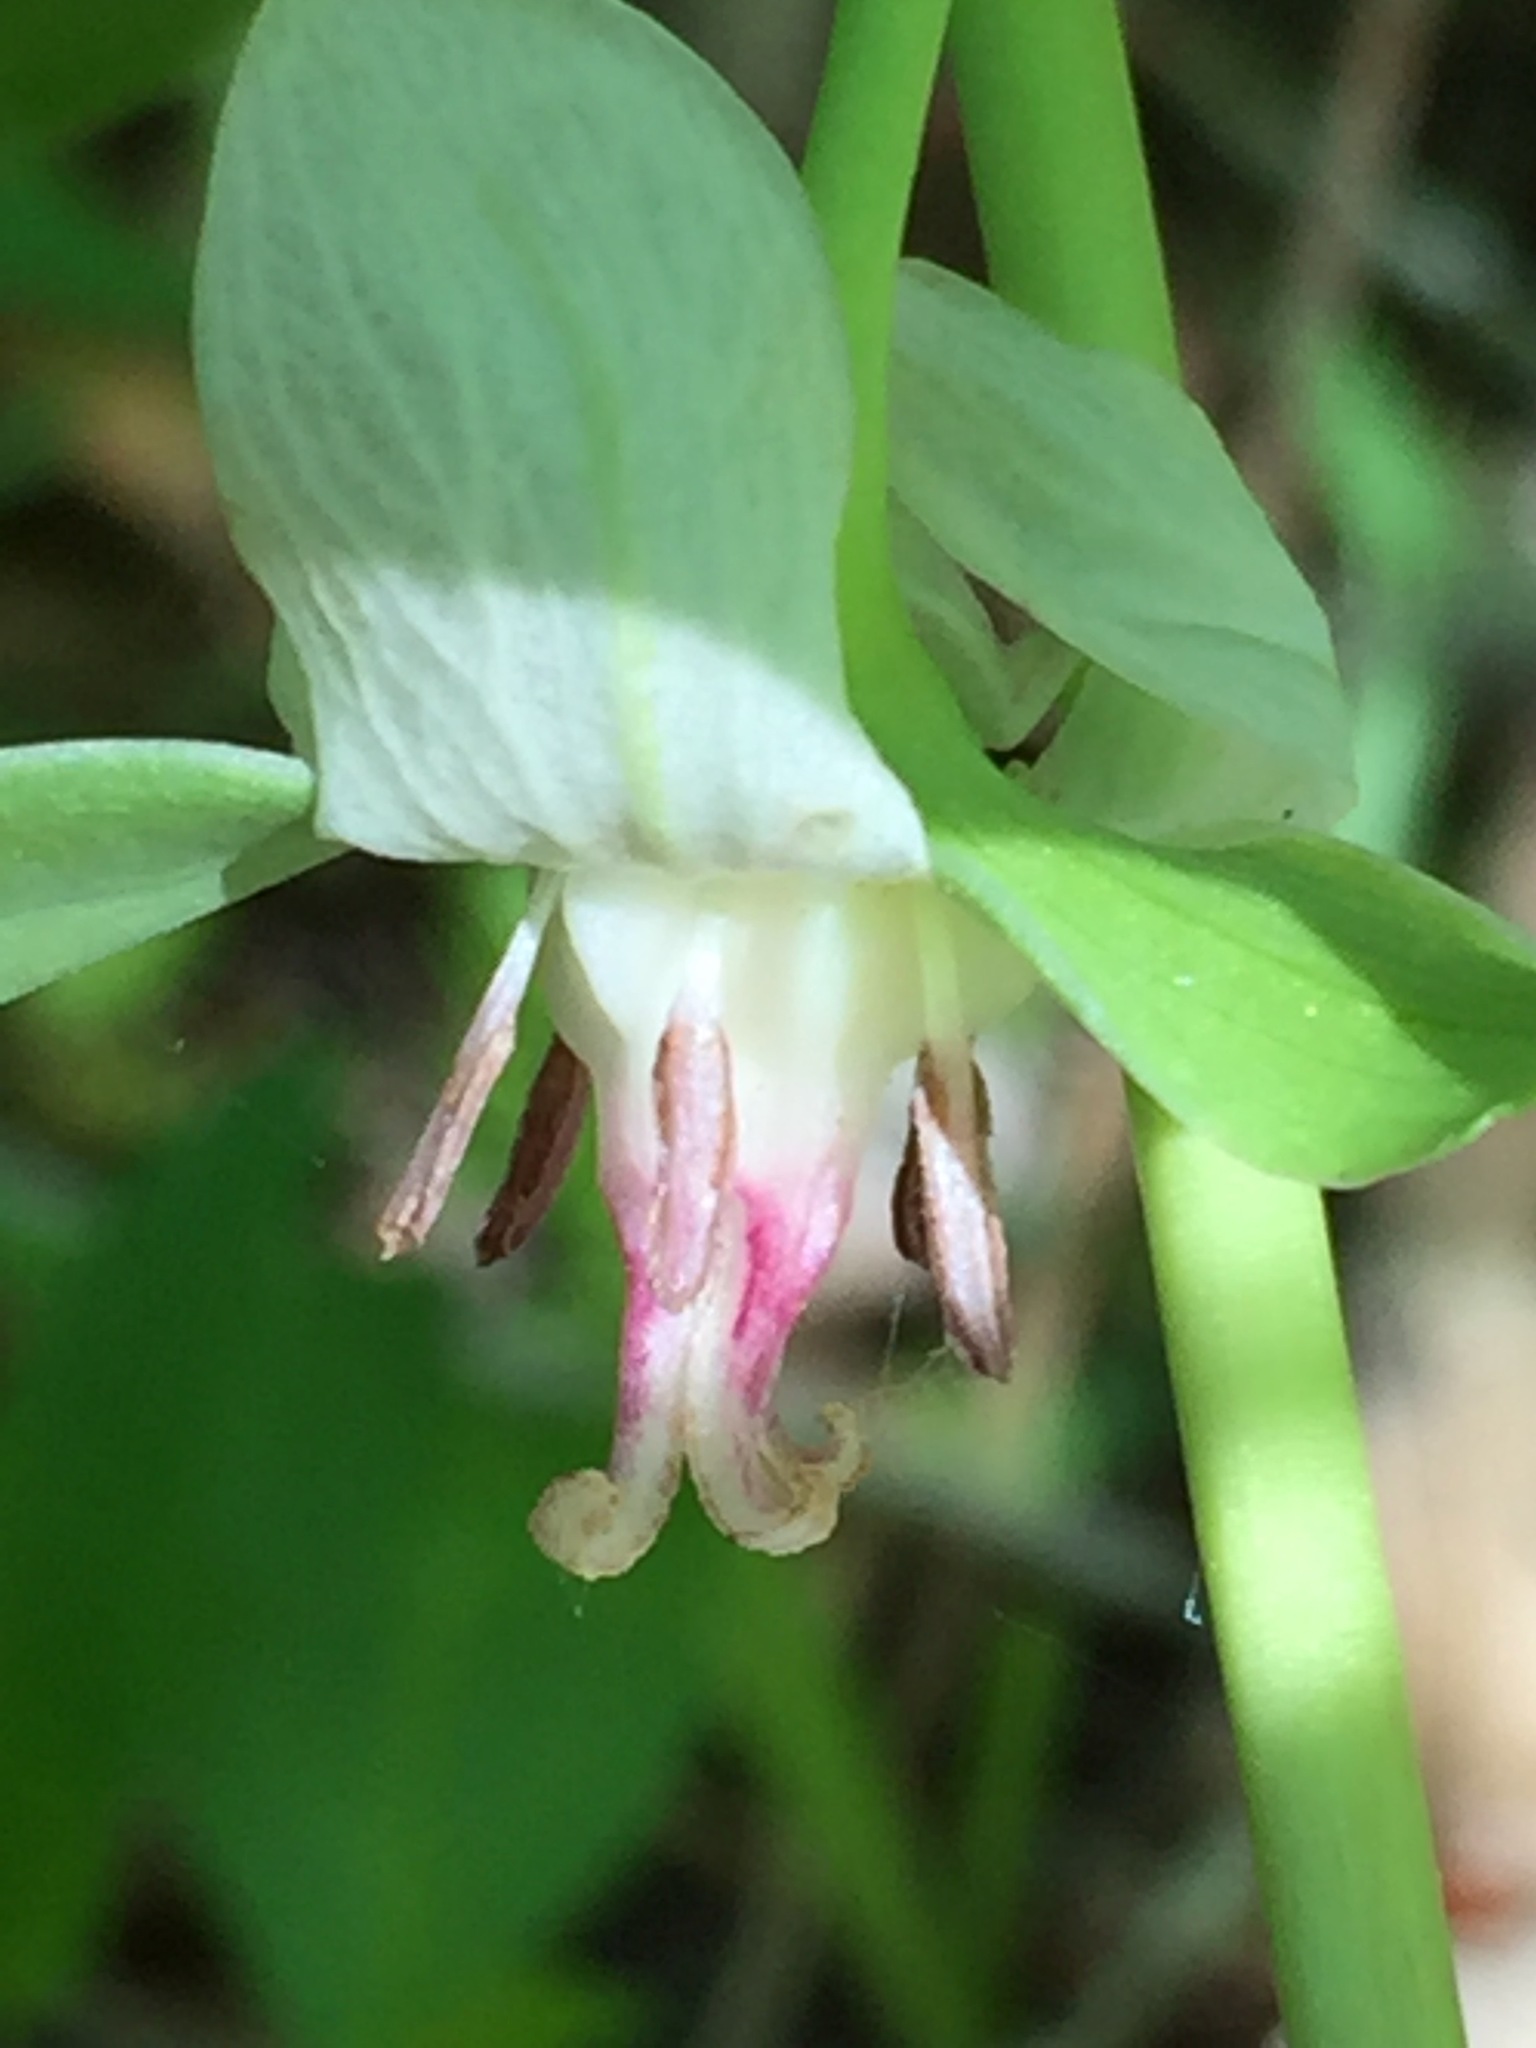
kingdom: Plantae
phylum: Tracheophyta
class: Liliopsida
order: Liliales
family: Melanthiaceae
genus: Trillium
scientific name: Trillium cernuum
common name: Nodding trillium
